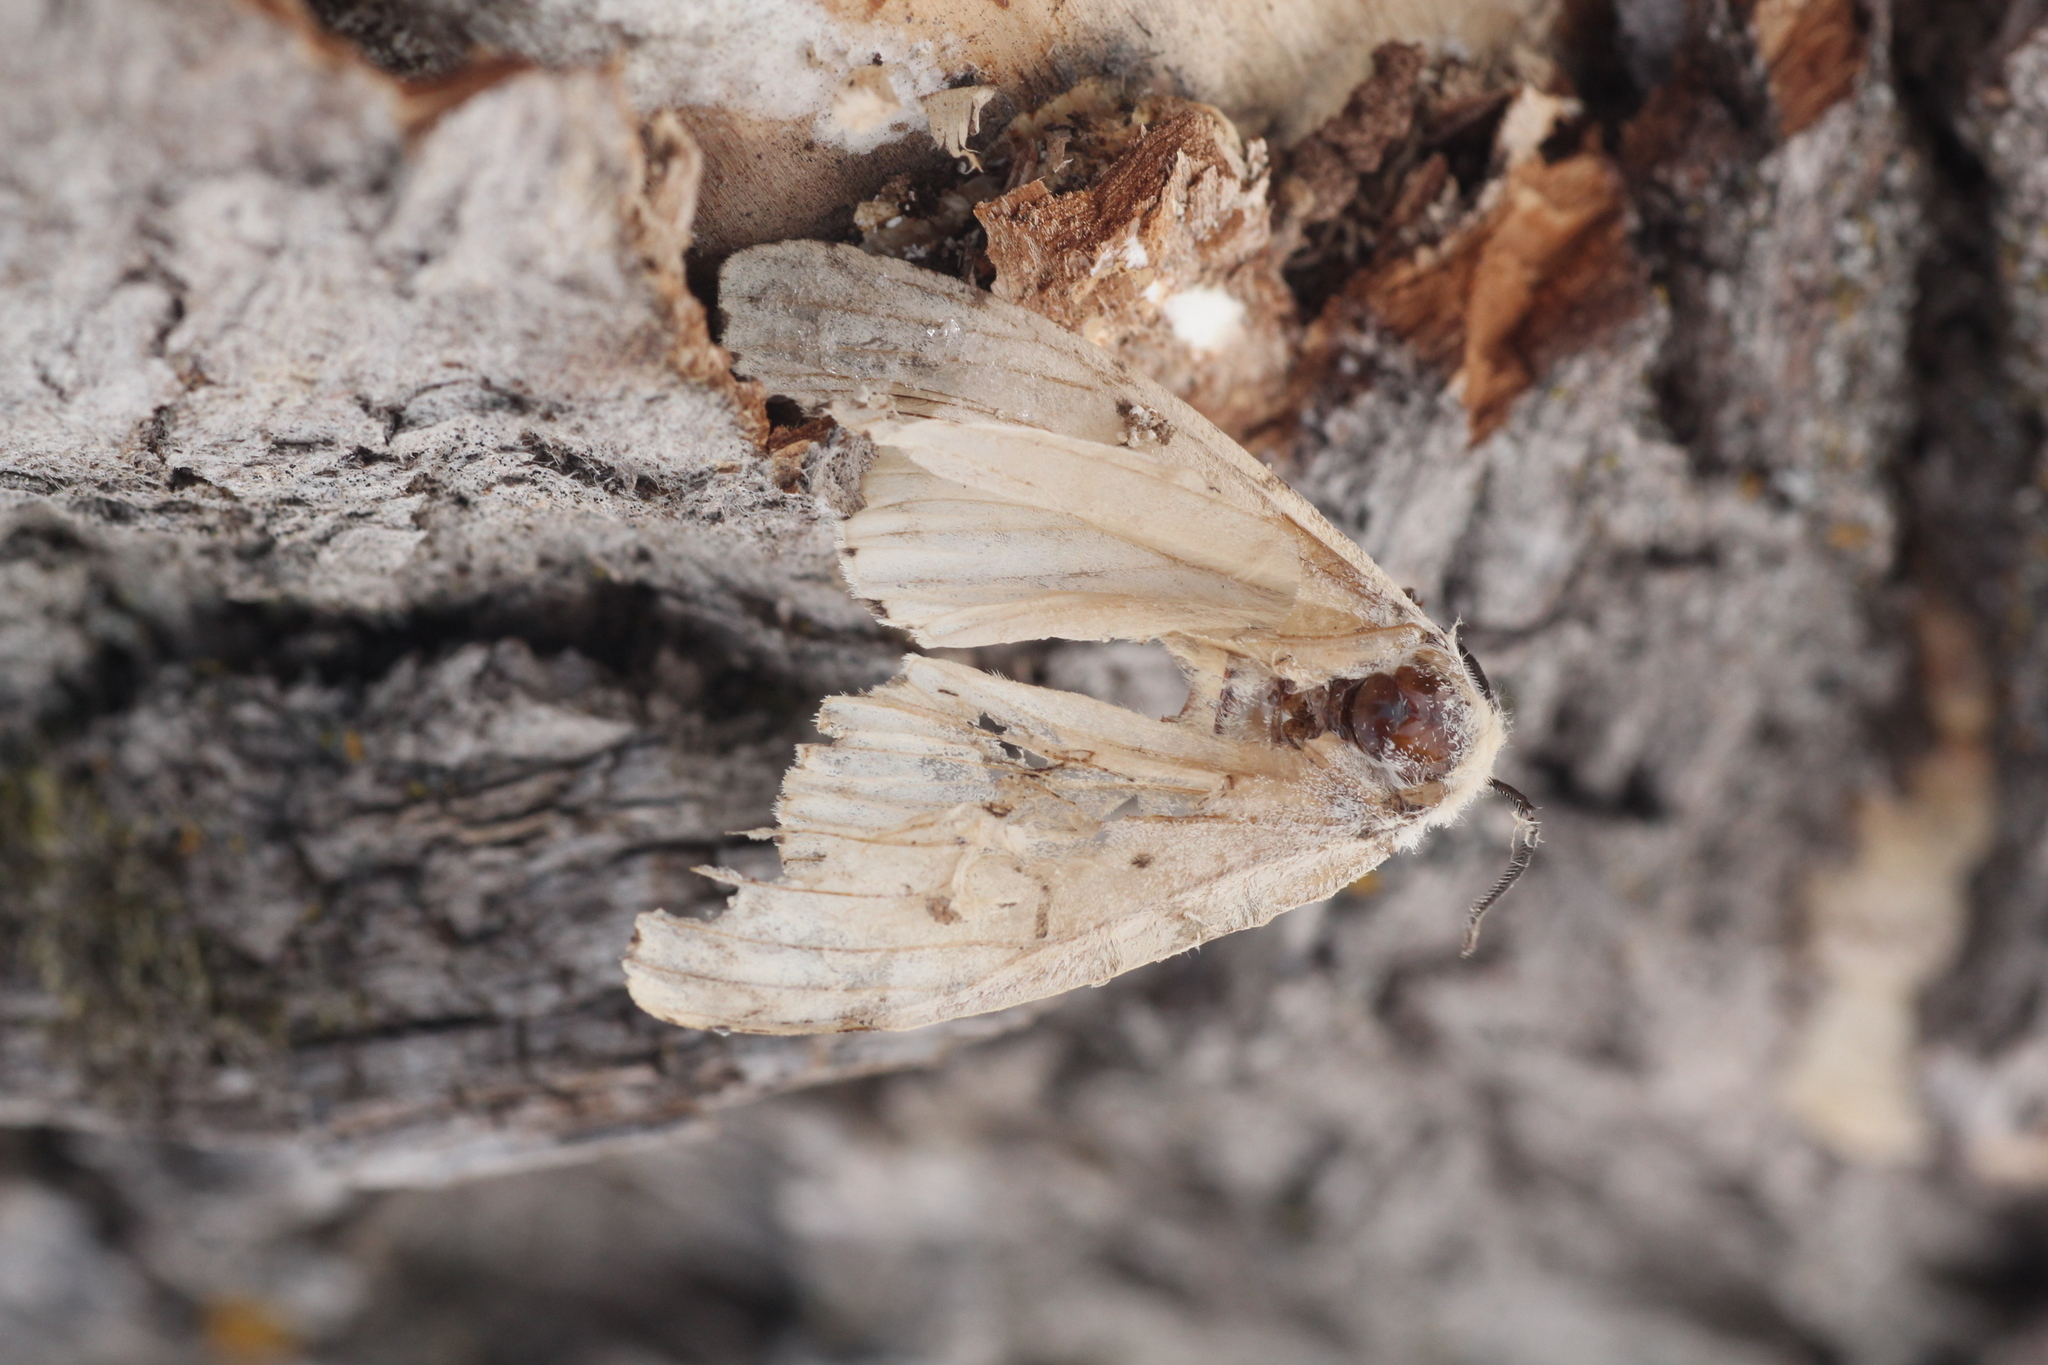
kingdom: Animalia
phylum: Arthropoda
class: Insecta
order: Lepidoptera
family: Erebidae
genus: Lymantria
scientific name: Lymantria dispar
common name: Gypsy moth
